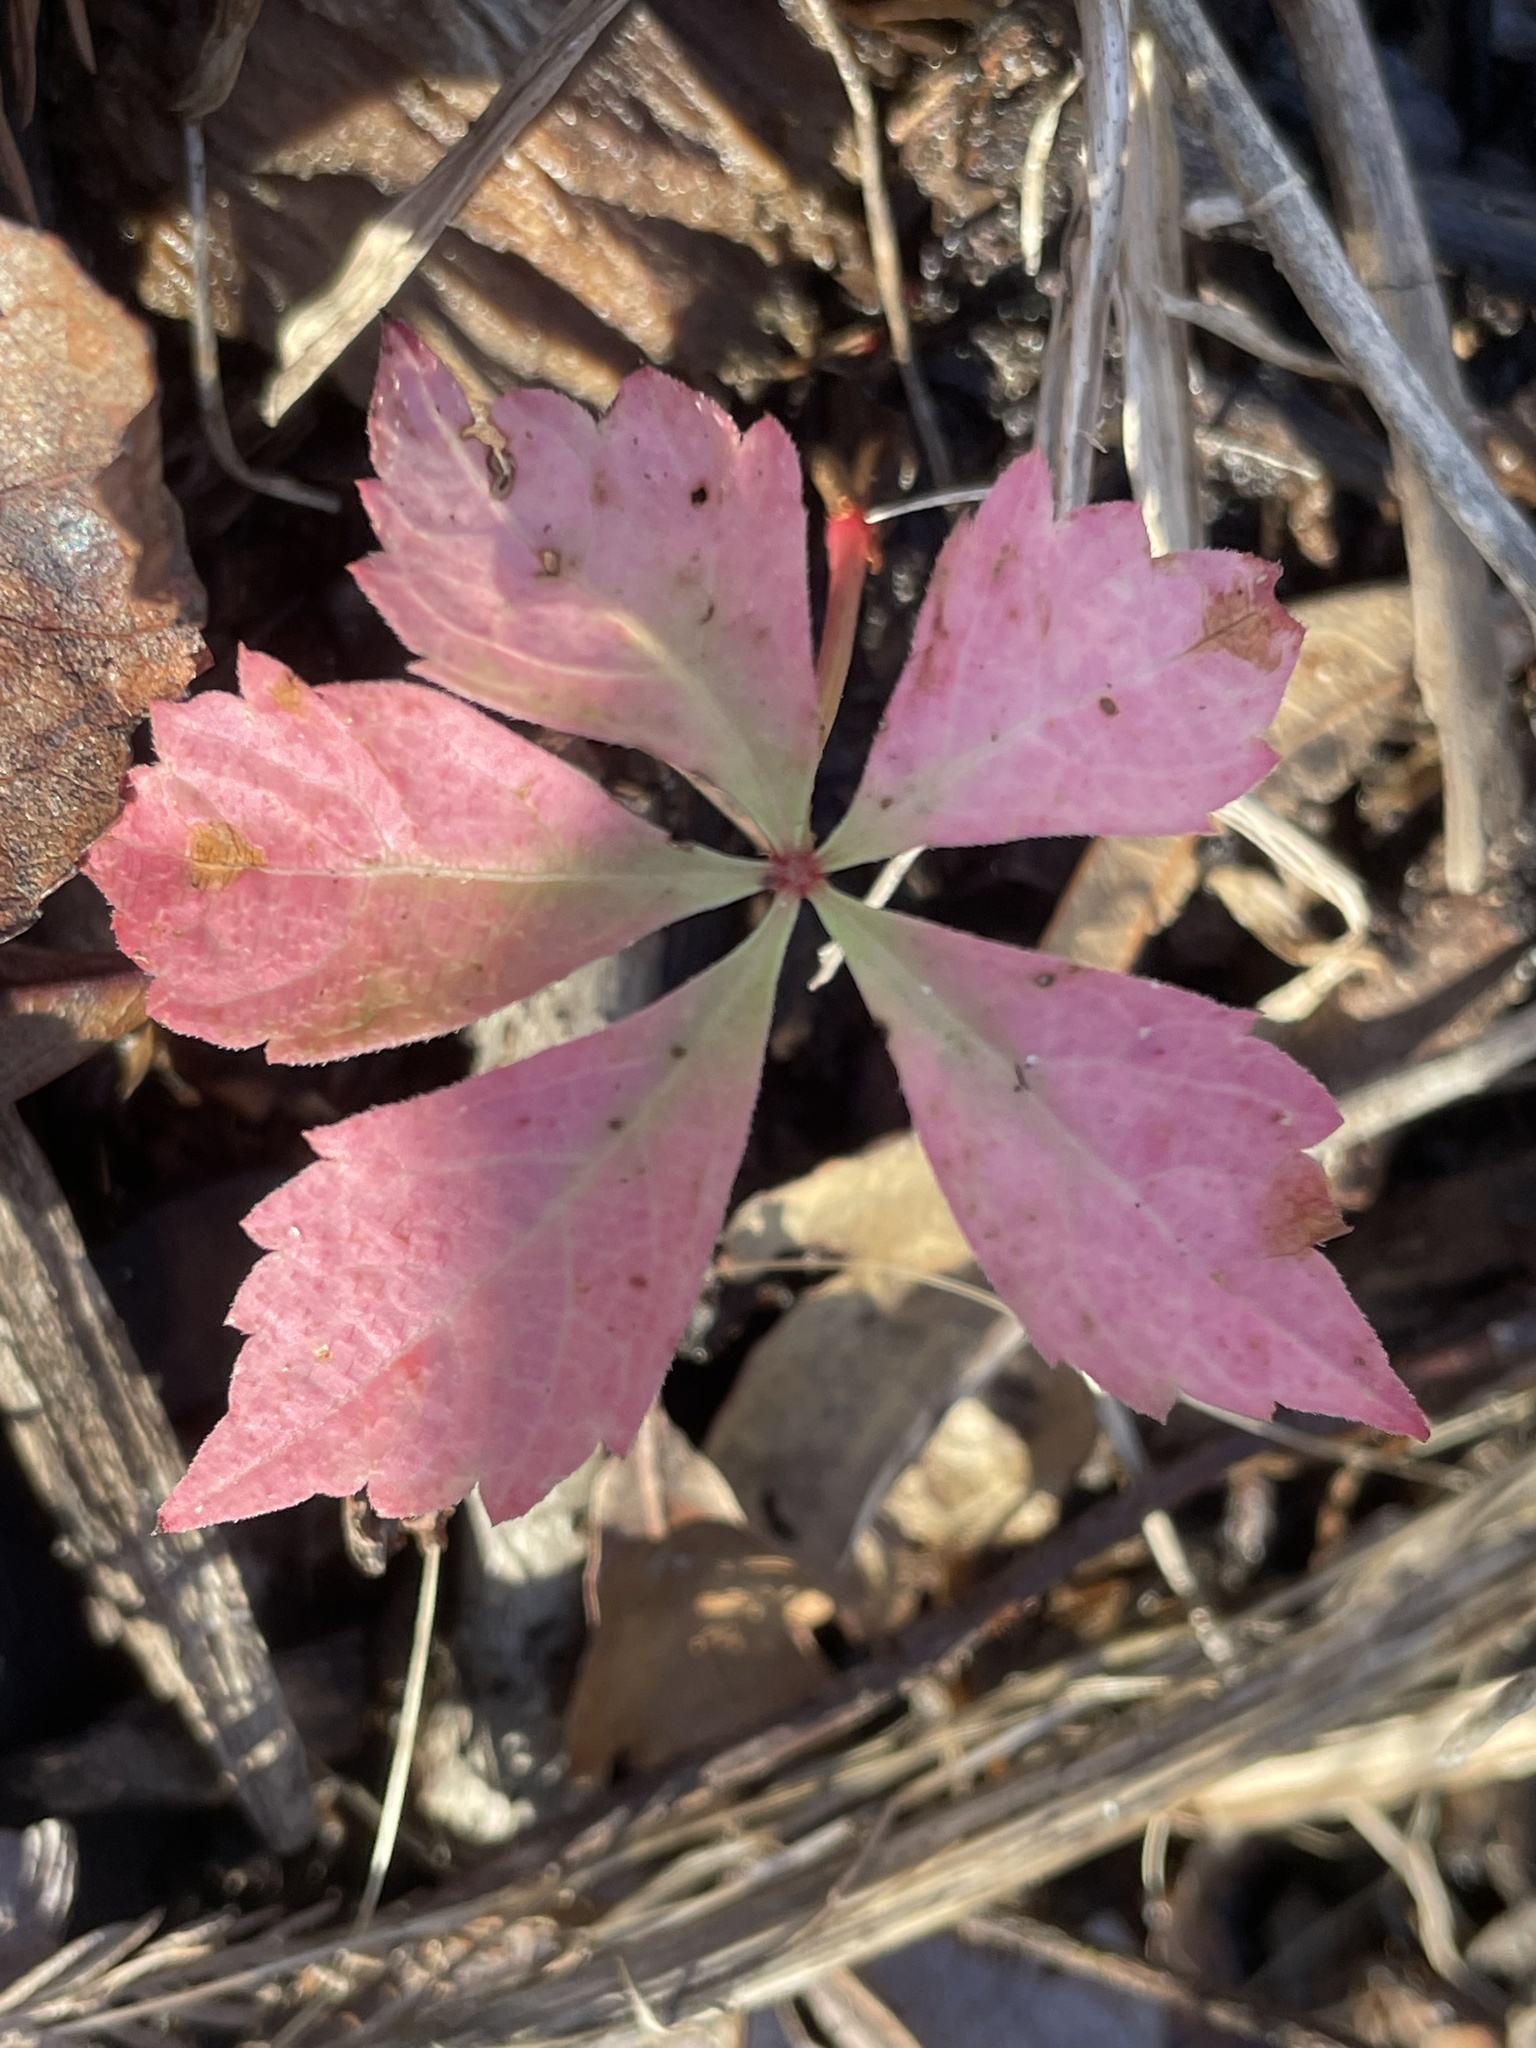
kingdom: Plantae
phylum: Tracheophyta
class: Magnoliopsida
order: Vitales
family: Vitaceae
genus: Parthenocissus
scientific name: Parthenocissus quinquefolia
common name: Virginia-creeper
